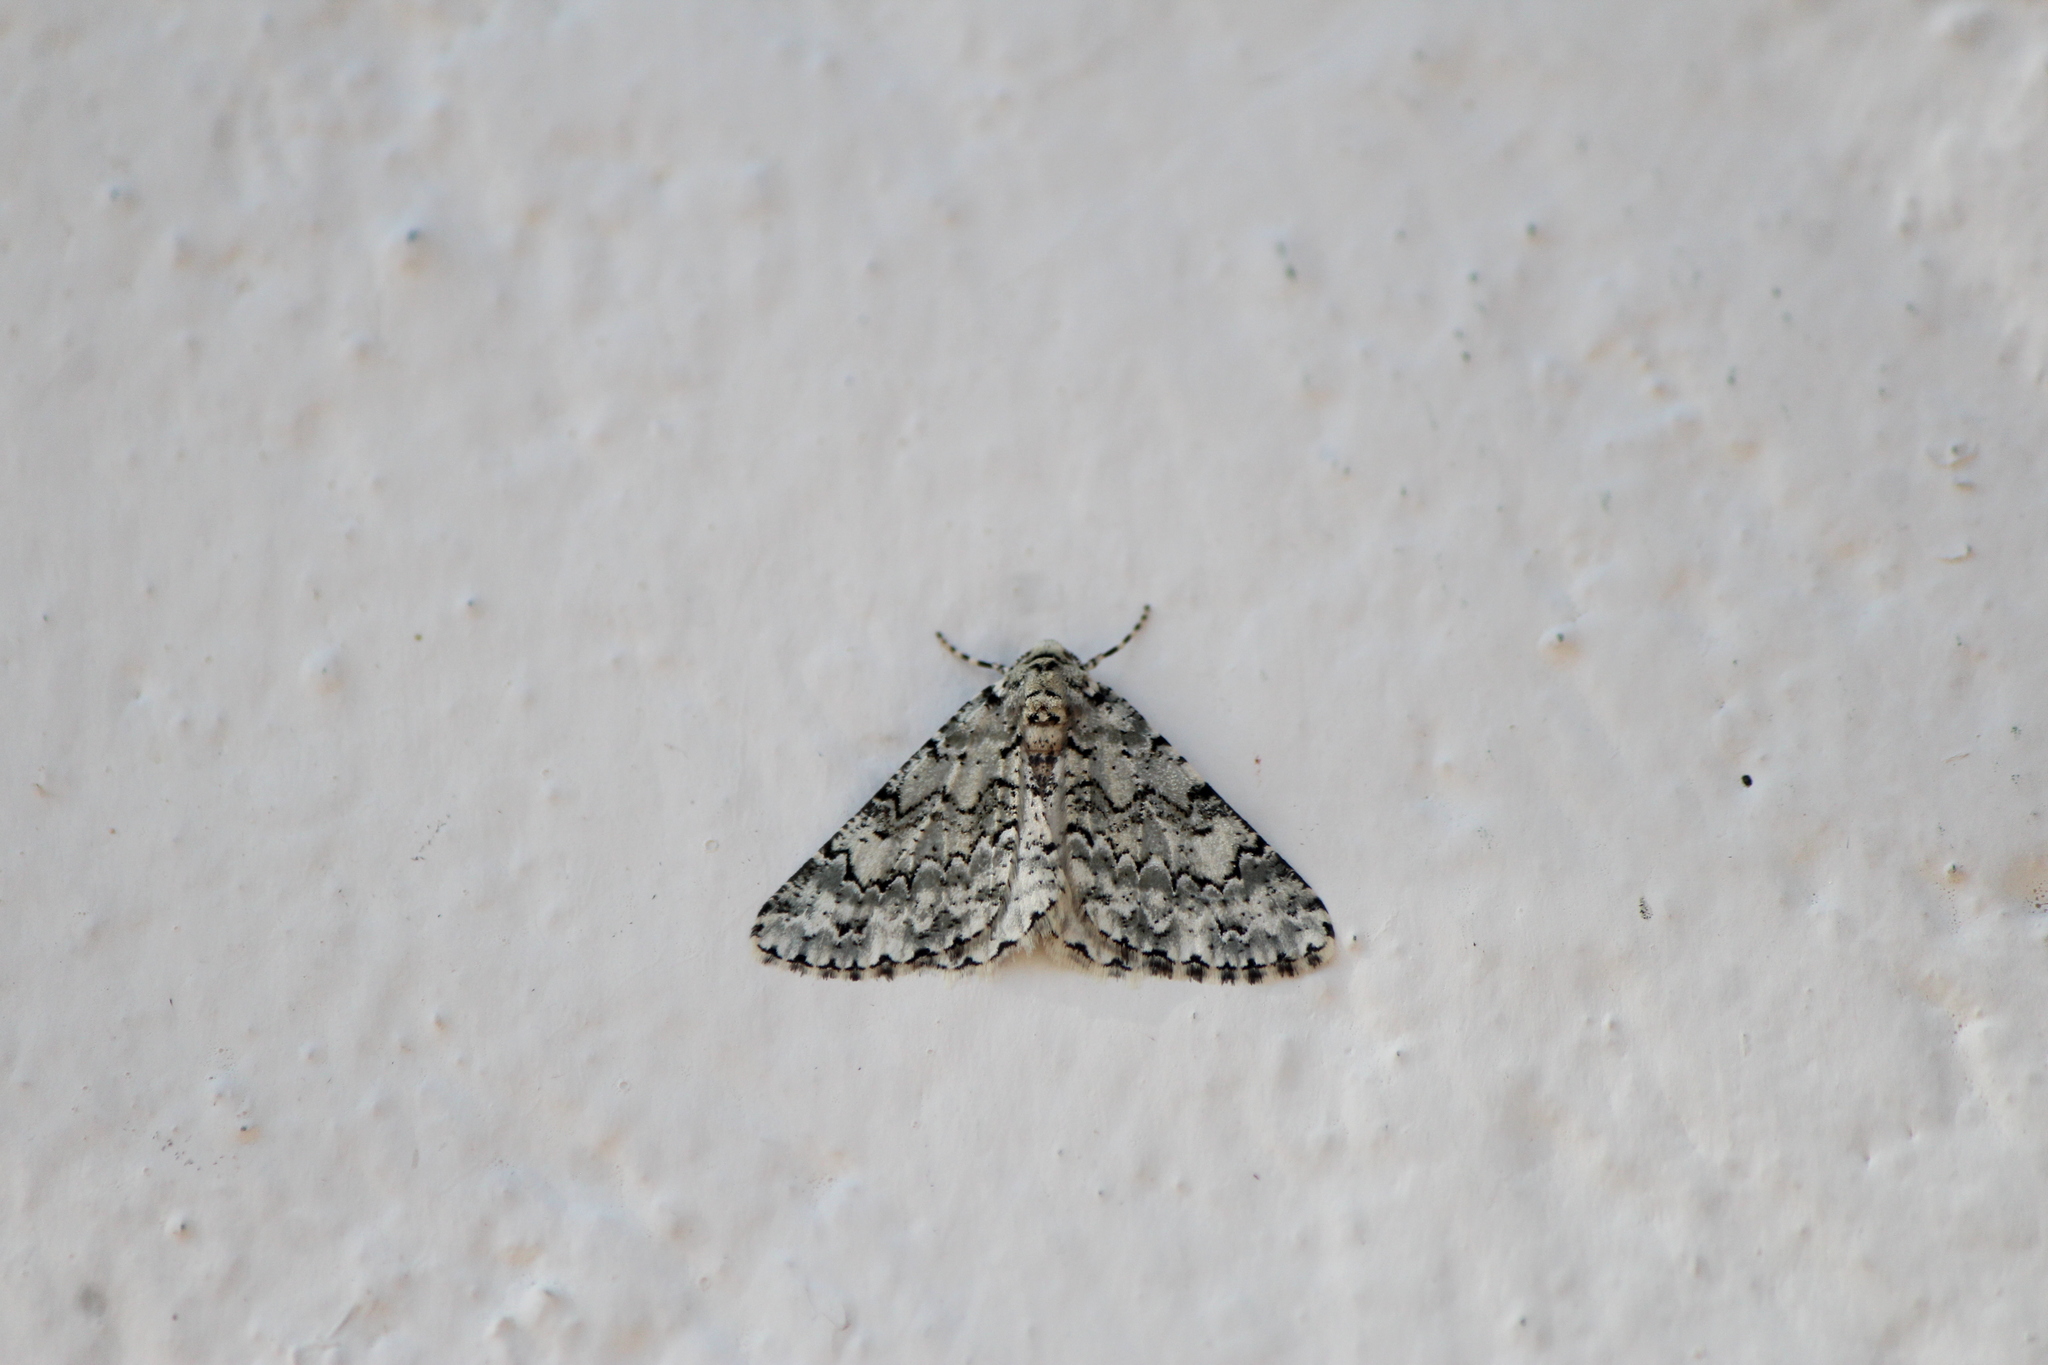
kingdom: Animalia
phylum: Arthropoda
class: Insecta
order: Lepidoptera
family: Geometridae
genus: Tracheops
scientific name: Tracheops bolteri
